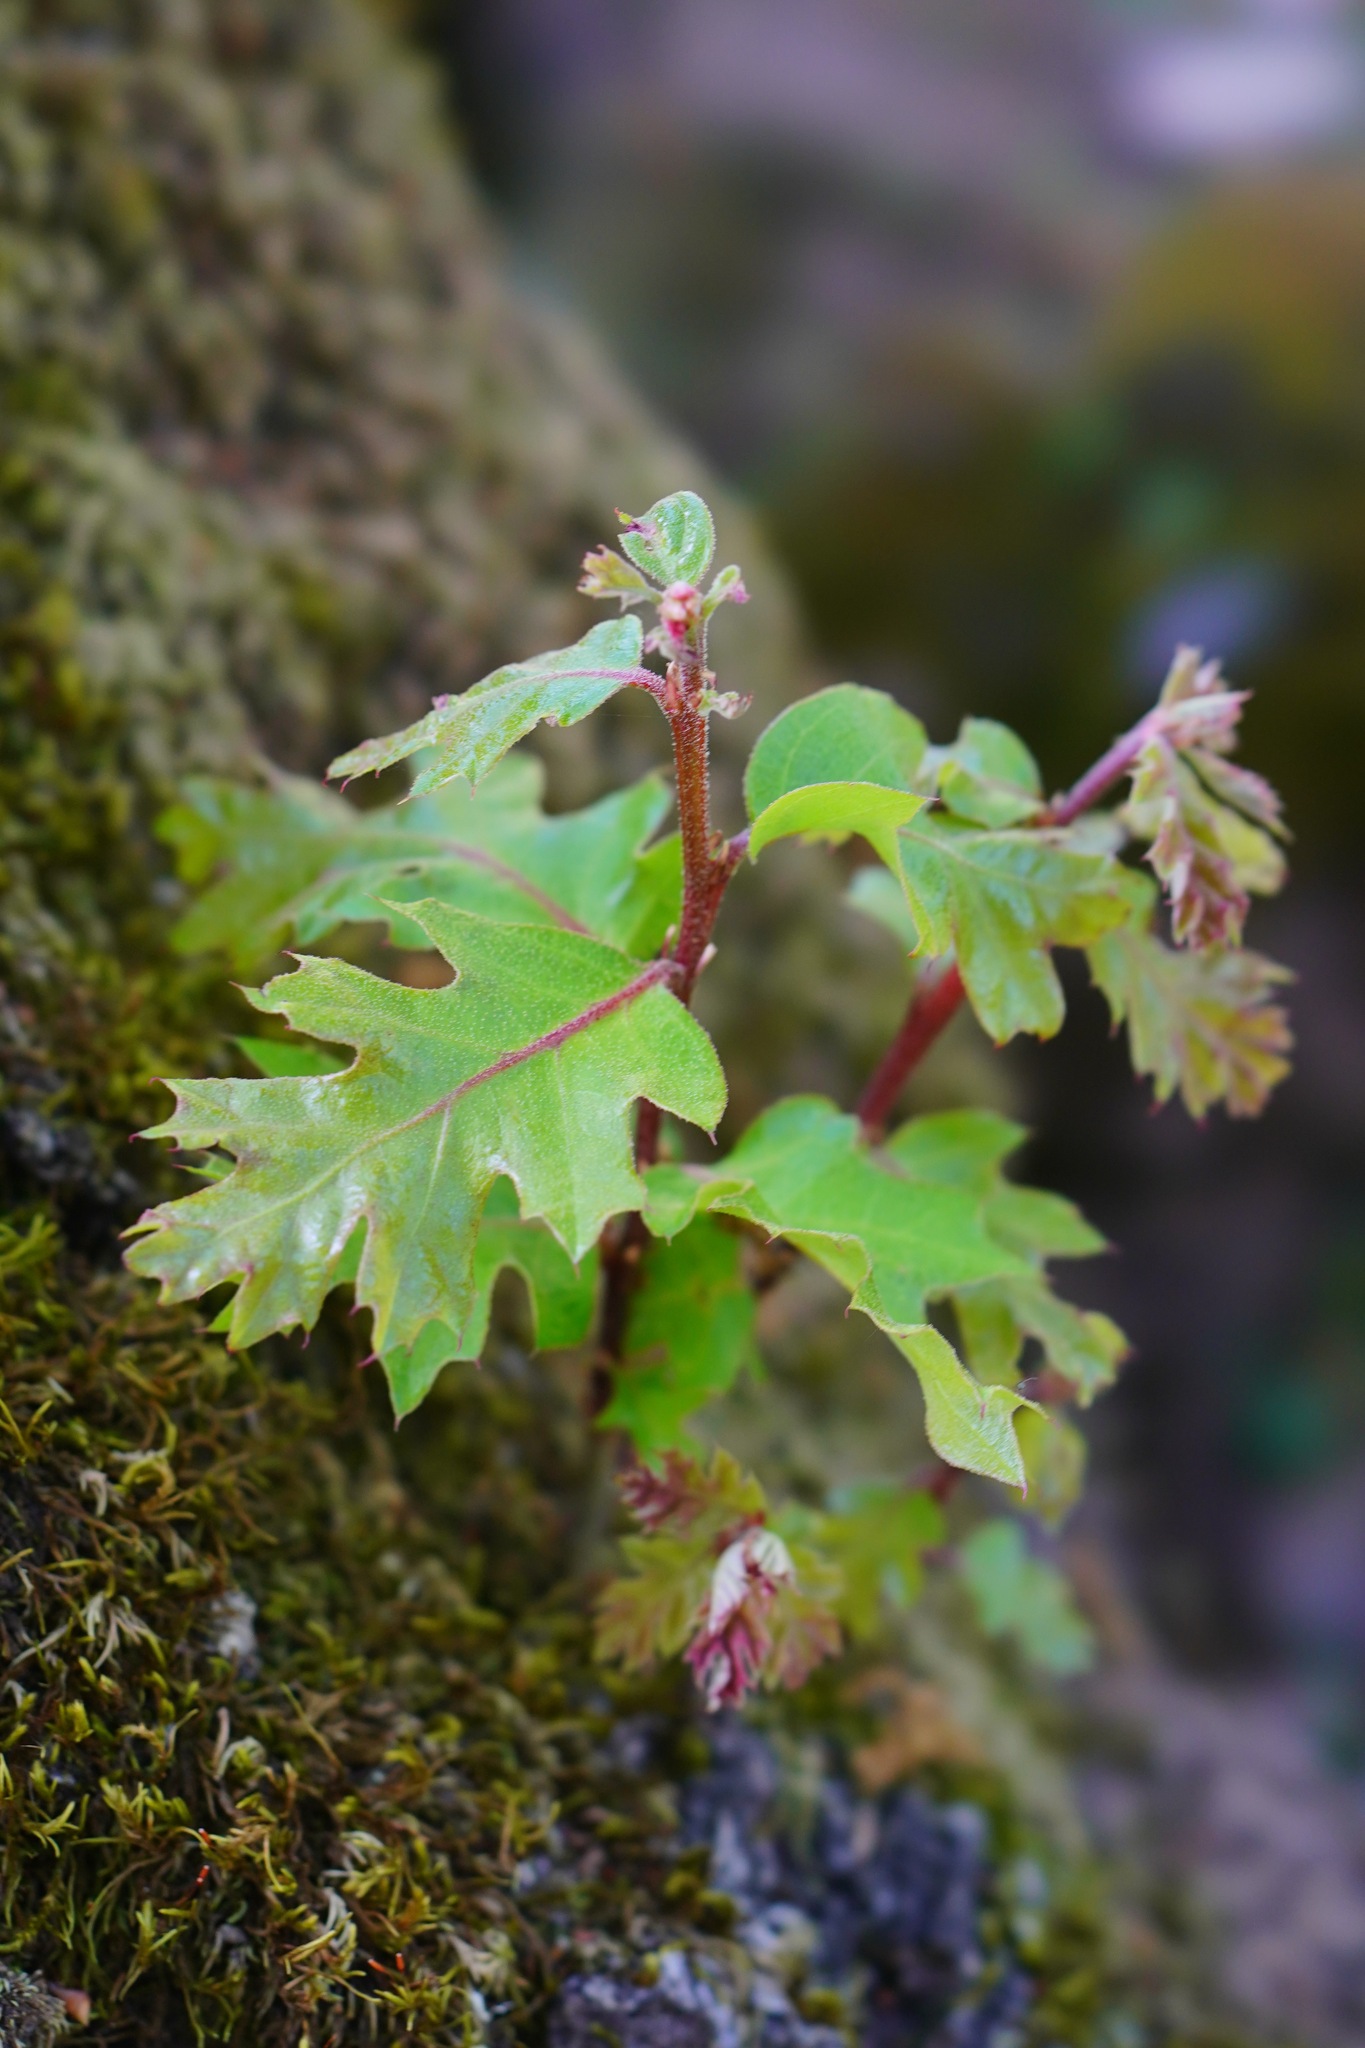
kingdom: Plantae
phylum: Tracheophyta
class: Magnoliopsida
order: Fagales
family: Fagaceae
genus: Quercus
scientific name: Quercus kelloggii
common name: California black oak
